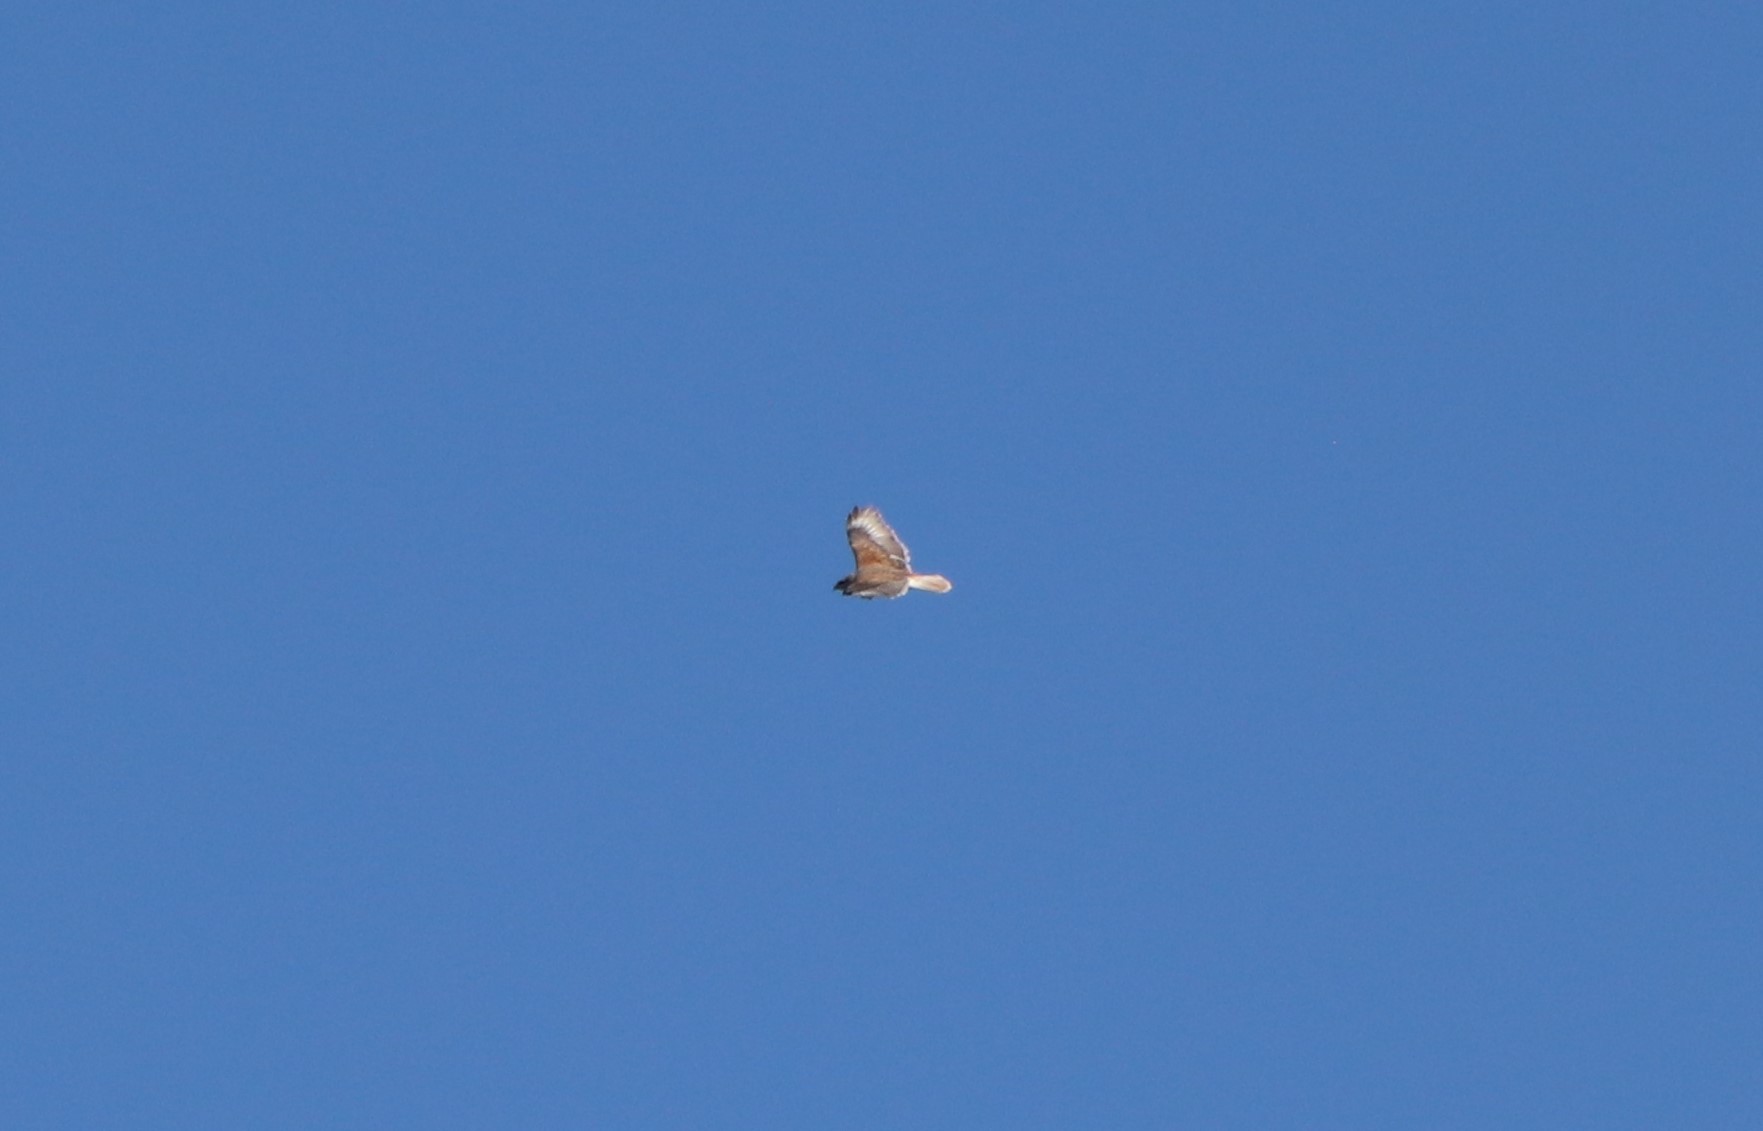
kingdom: Animalia
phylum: Chordata
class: Aves
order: Accipitriformes
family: Accipitridae
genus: Buteo
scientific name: Buteo regalis
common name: Ferruginous hawk
